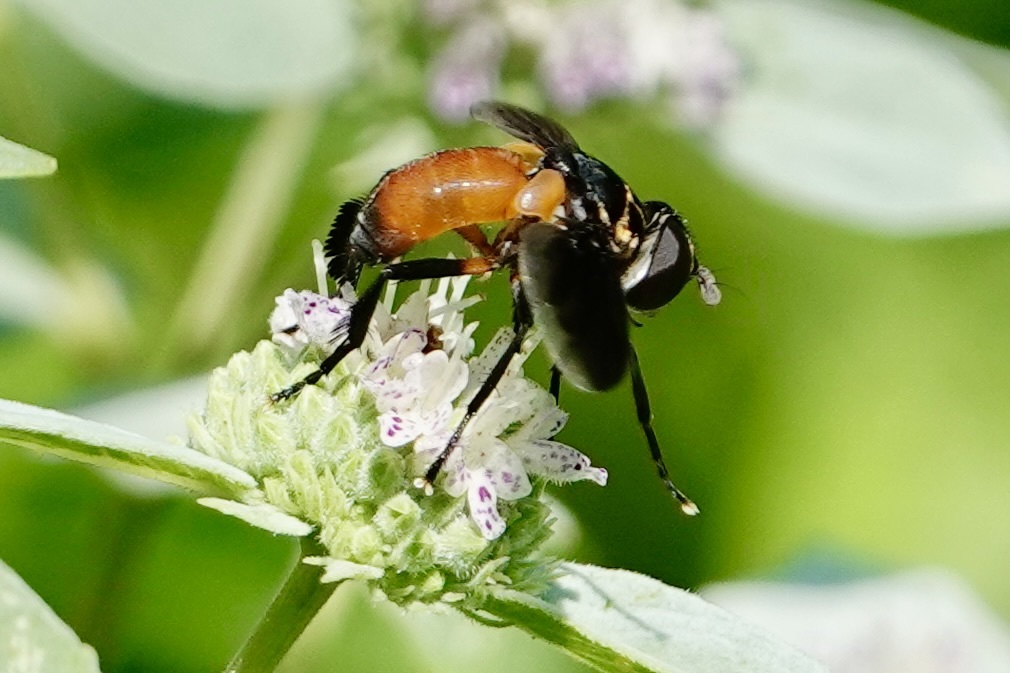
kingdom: Animalia
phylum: Arthropoda
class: Insecta
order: Diptera
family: Tachinidae
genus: Trichopoda
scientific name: Trichopoda pennipes
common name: Tachinid fly
